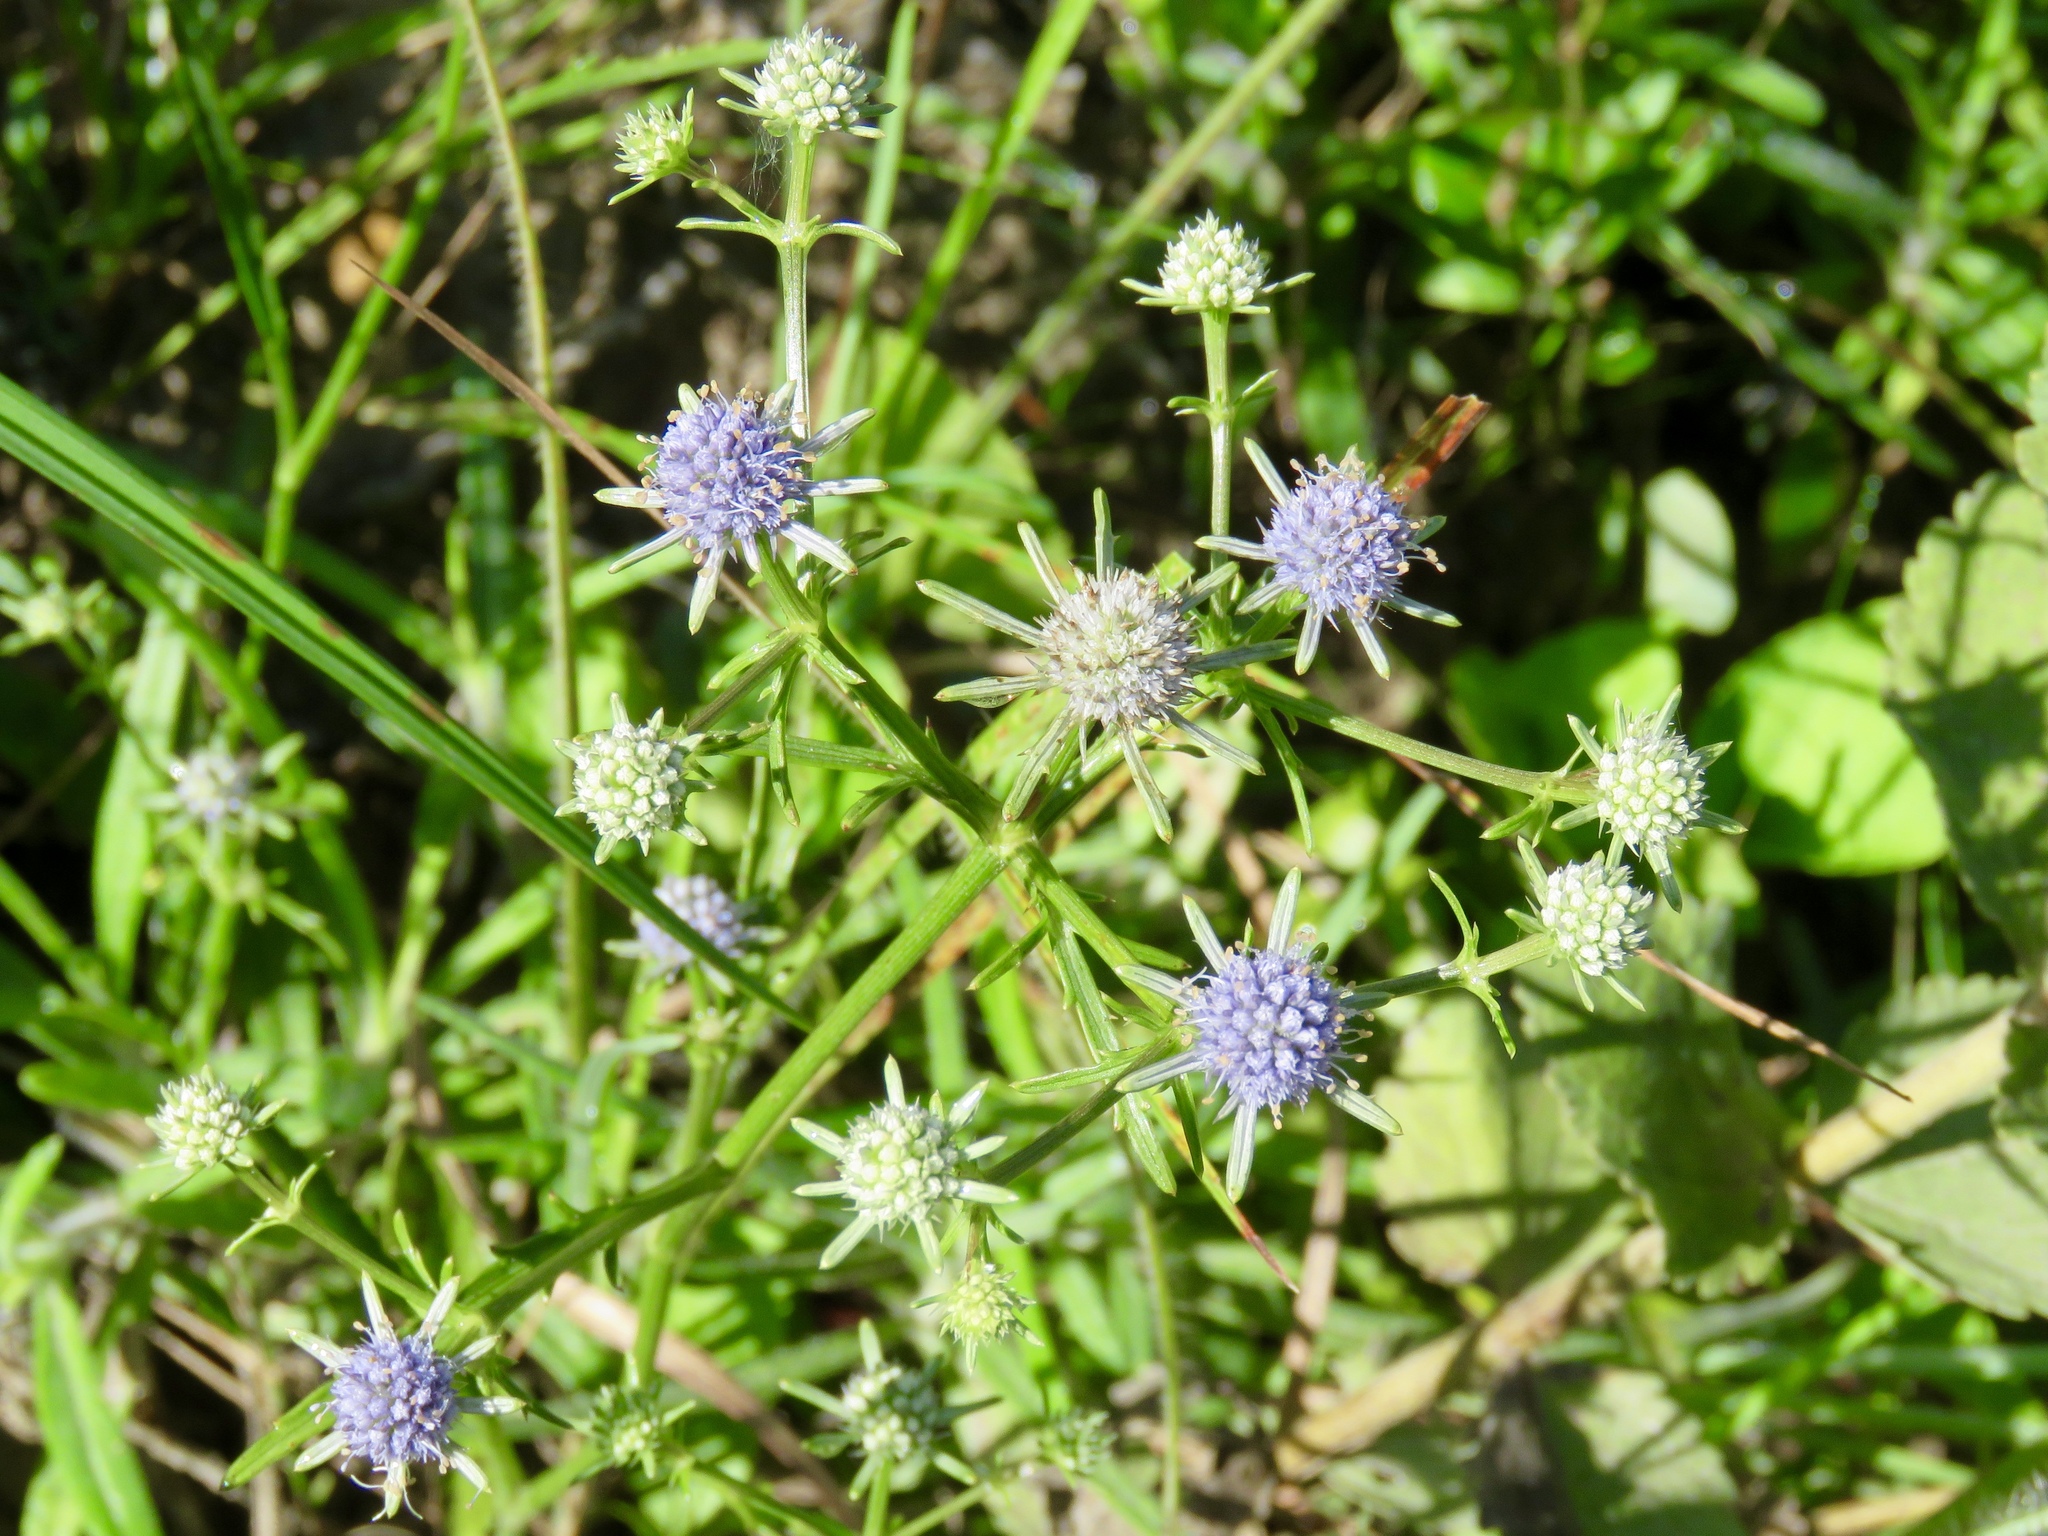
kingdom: Plantae
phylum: Tracheophyta
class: Magnoliopsida
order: Apiales
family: Apiaceae
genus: Eryngium
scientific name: Eryngium integrifolium
